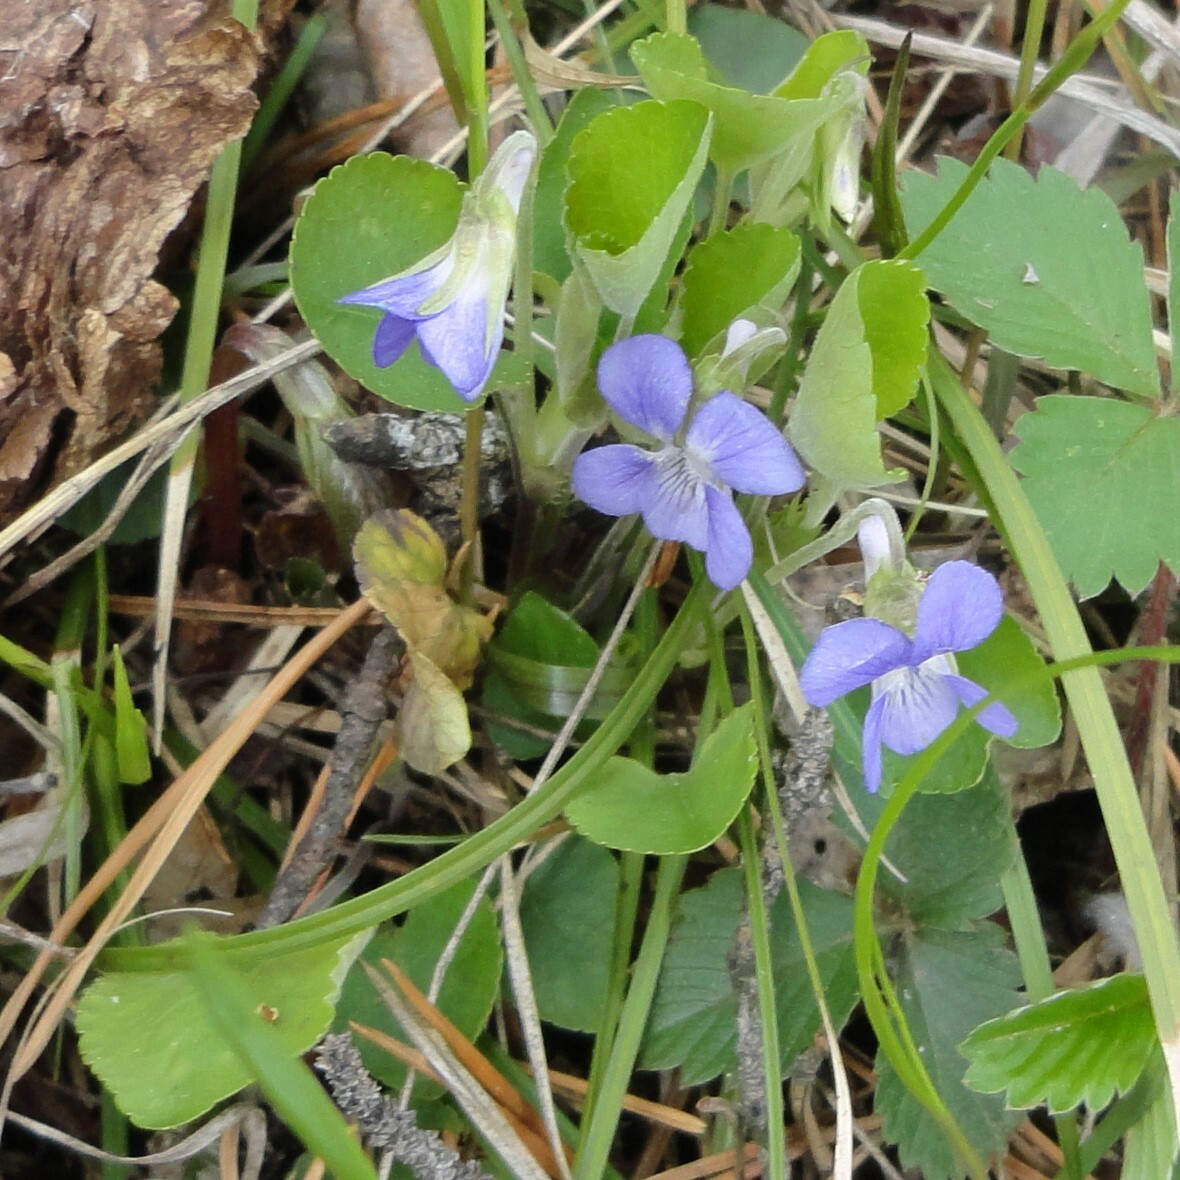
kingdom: Plantae
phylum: Tracheophyta
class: Magnoliopsida
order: Malpighiales
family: Violaceae
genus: Viola
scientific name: Viola rupestris
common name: Teesdale violet
